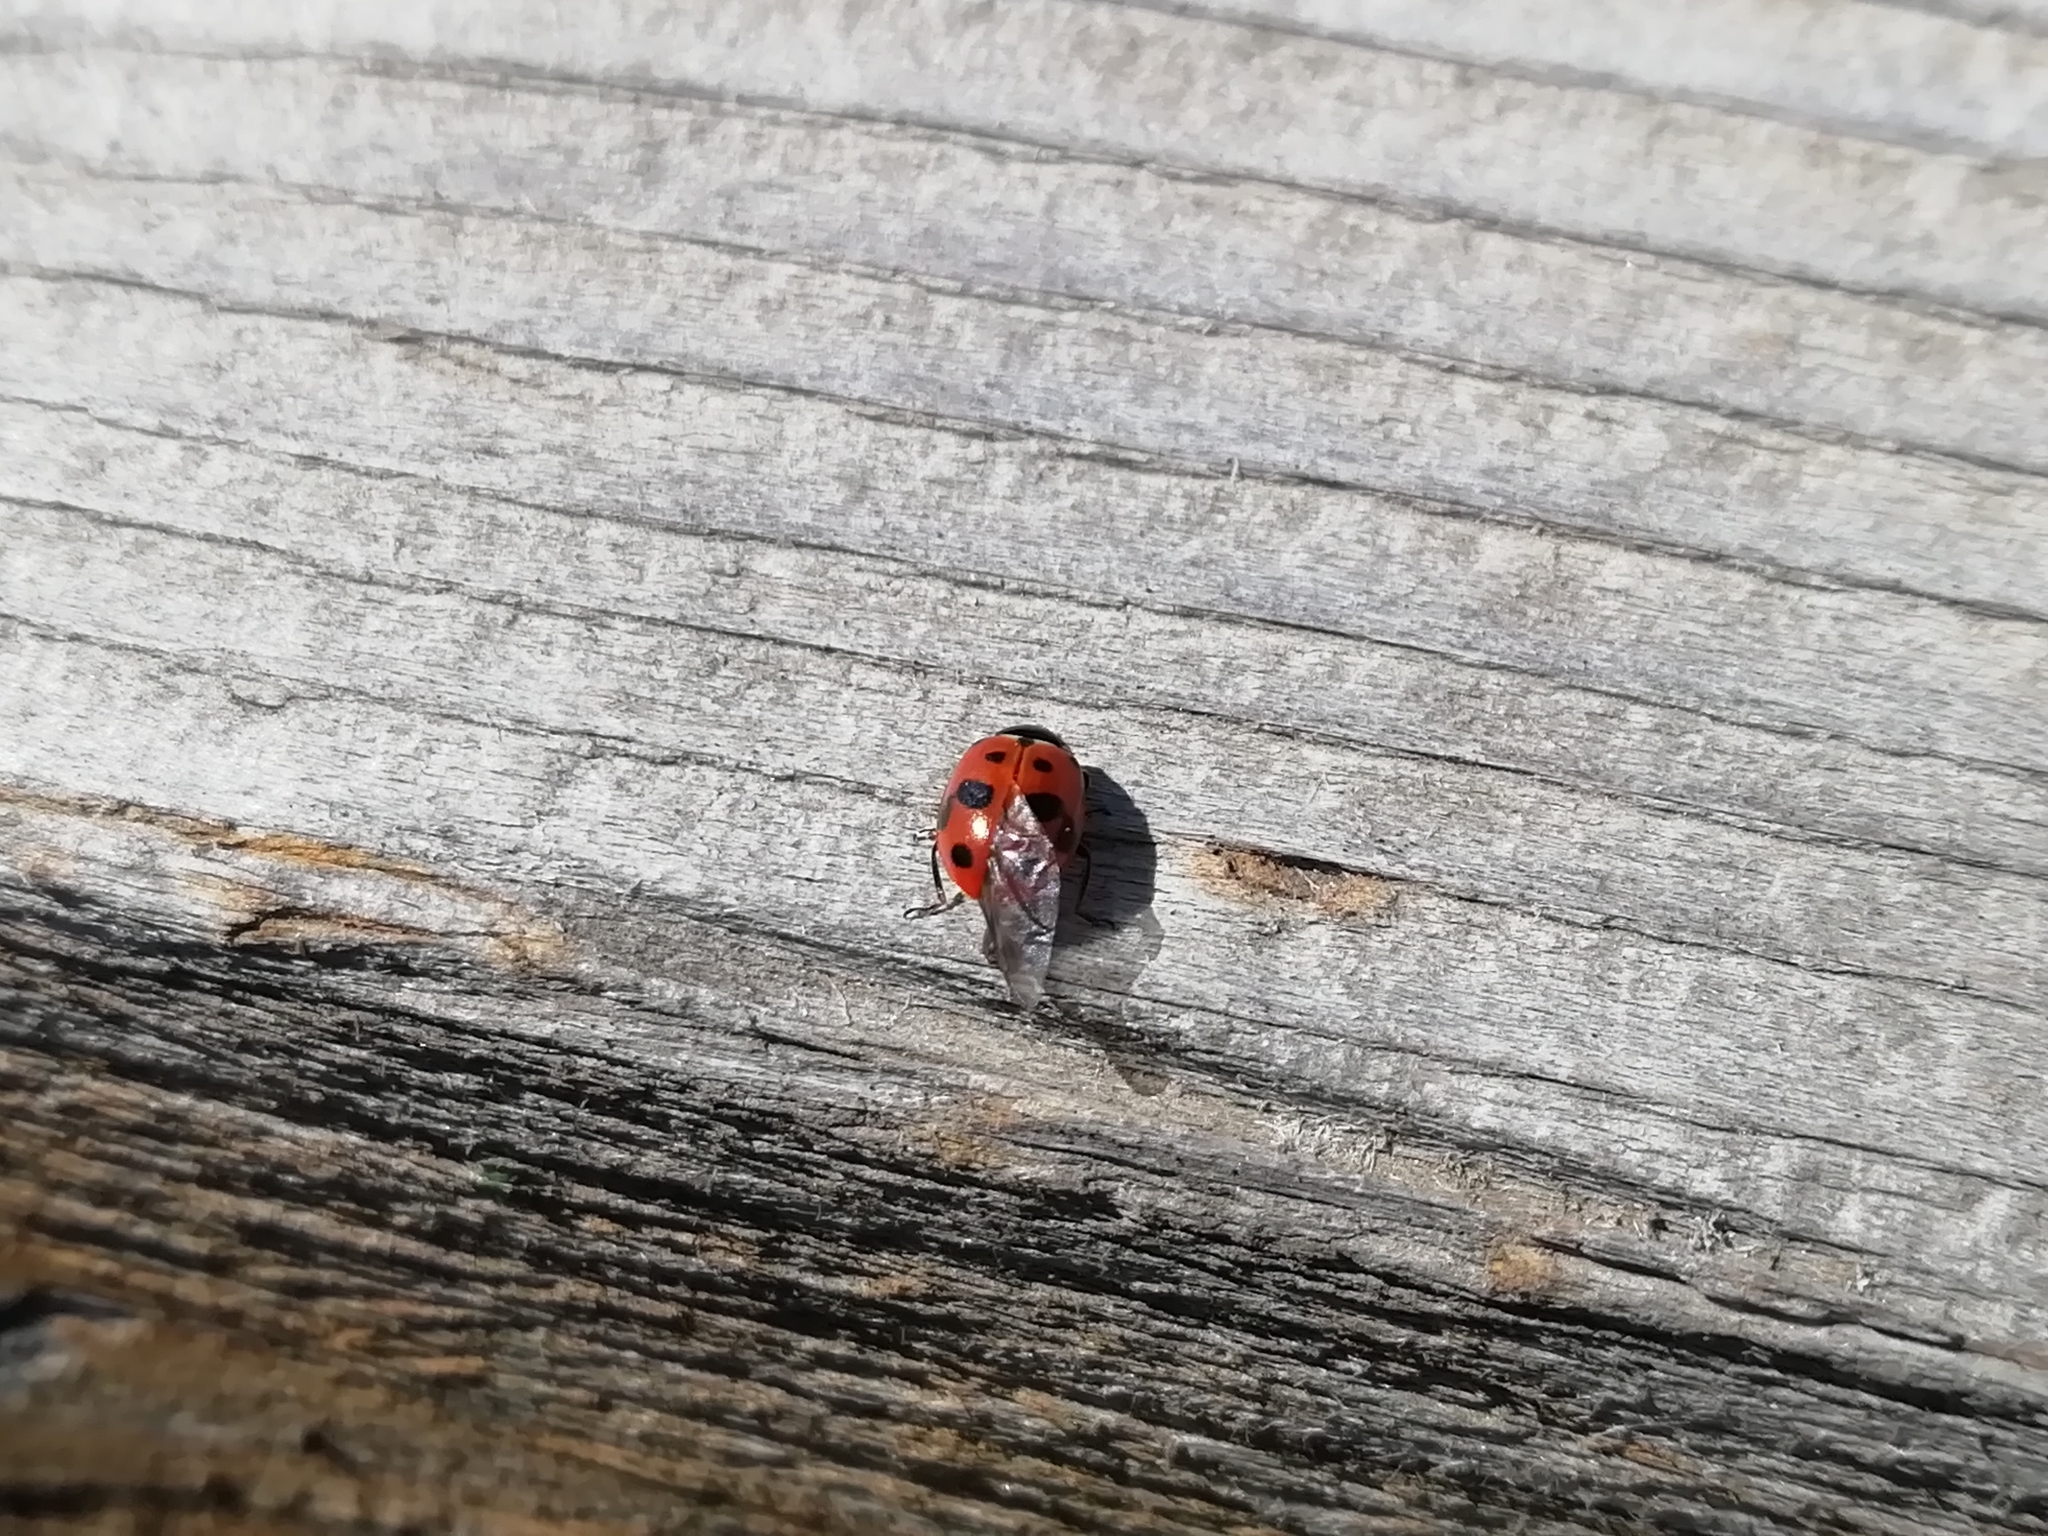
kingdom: Animalia
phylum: Arthropoda
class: Insecta
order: Coleoptera
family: Coccinellidae
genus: Hippodamia
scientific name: Hippodamia variegata
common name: Ladybird beetle
